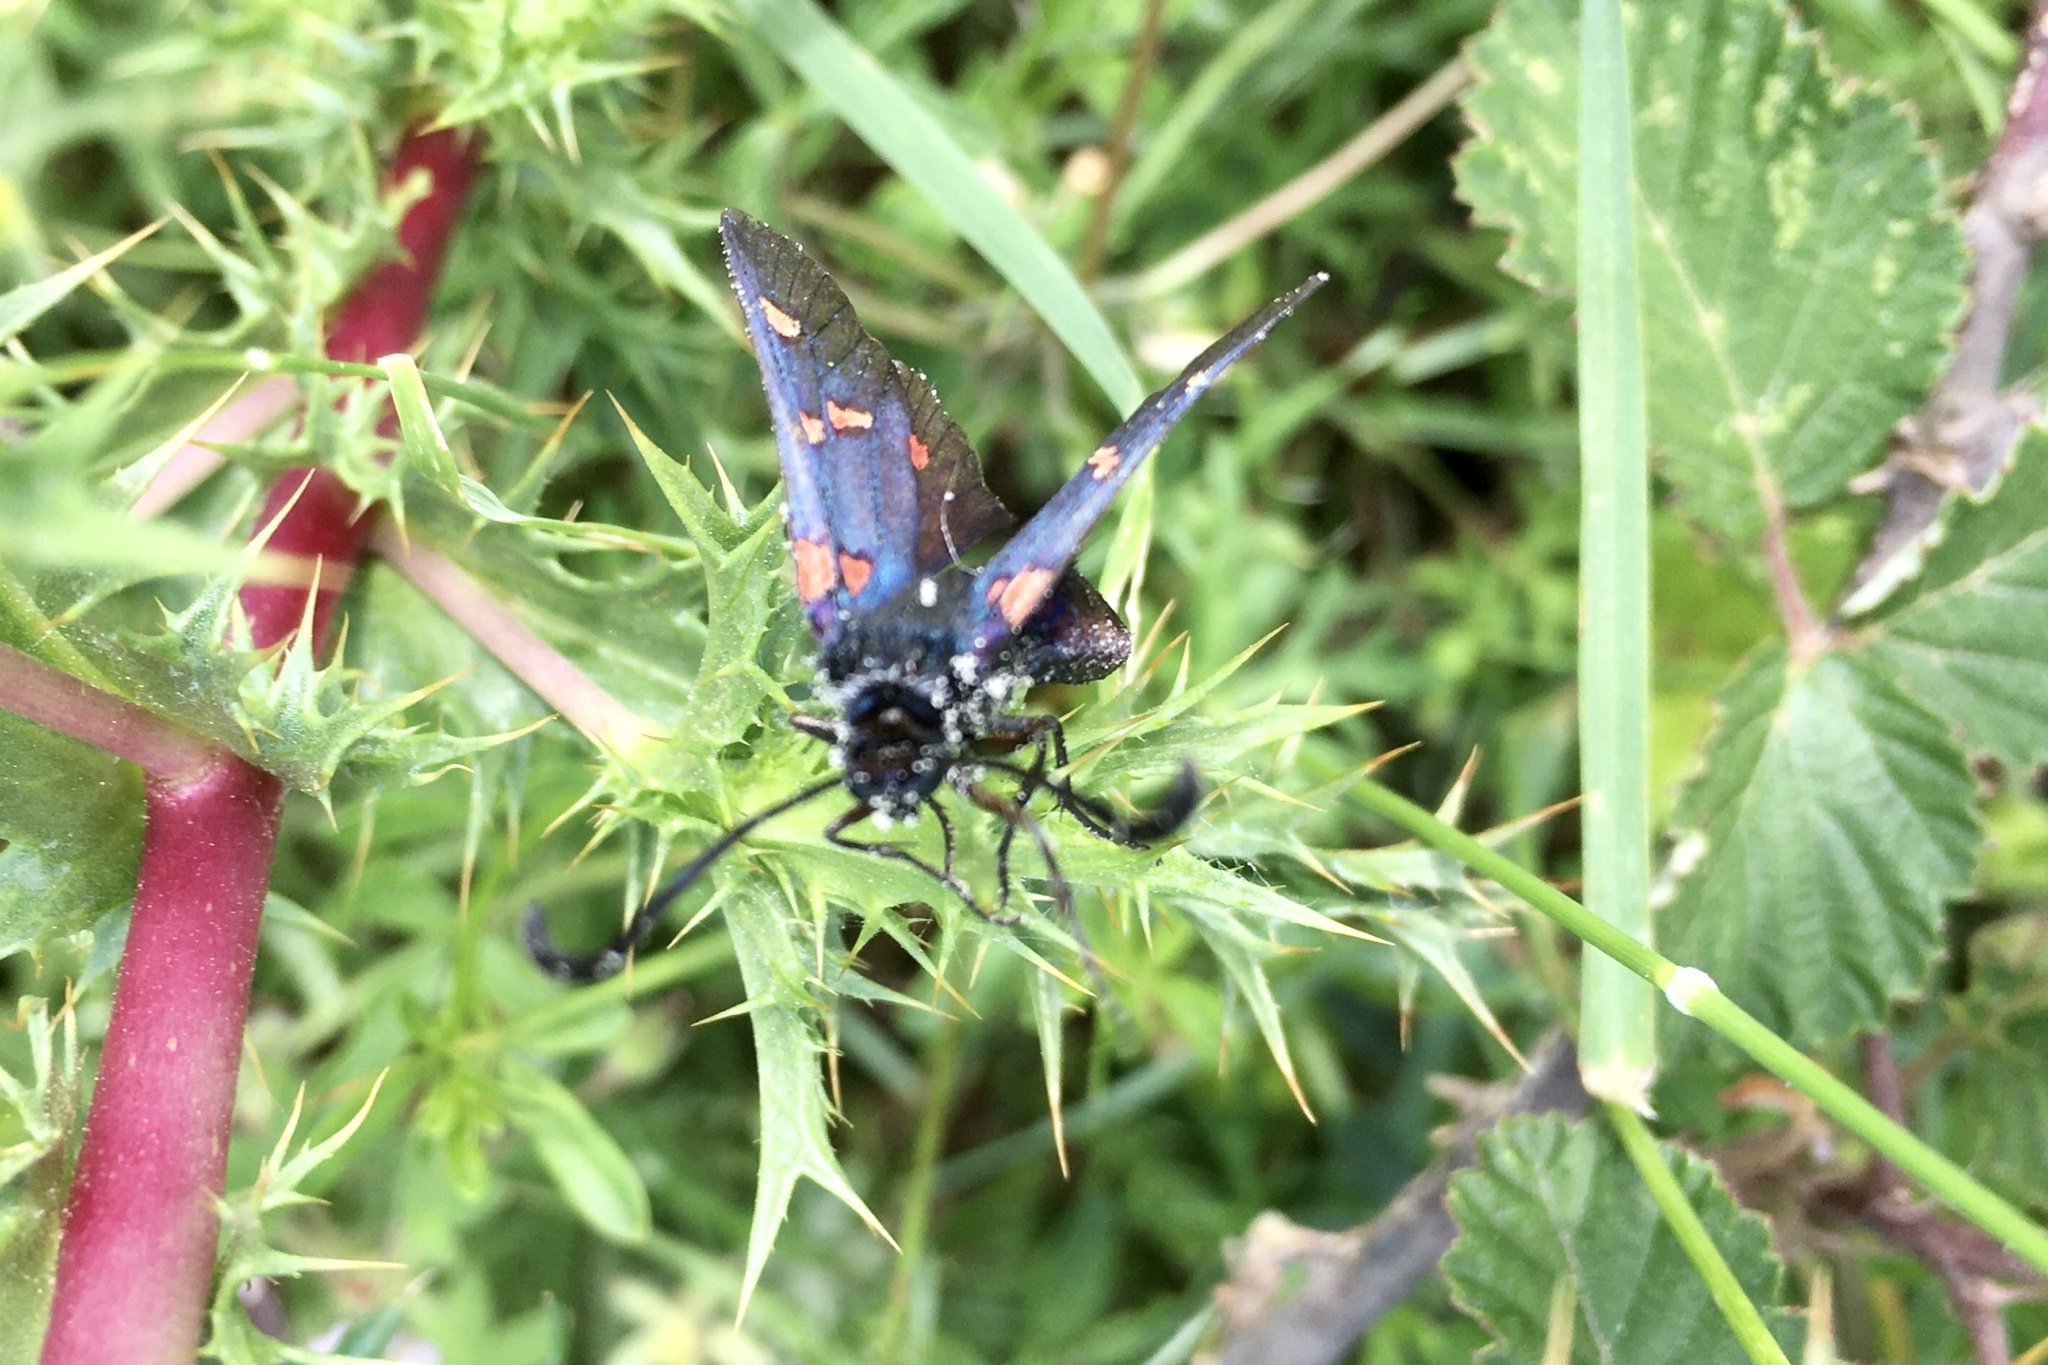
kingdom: Animalia
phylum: Arthropoda
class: Insecta
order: Lepidoptera
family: Zygaenidae
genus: Zygaena
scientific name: Zygaena lavandulae
